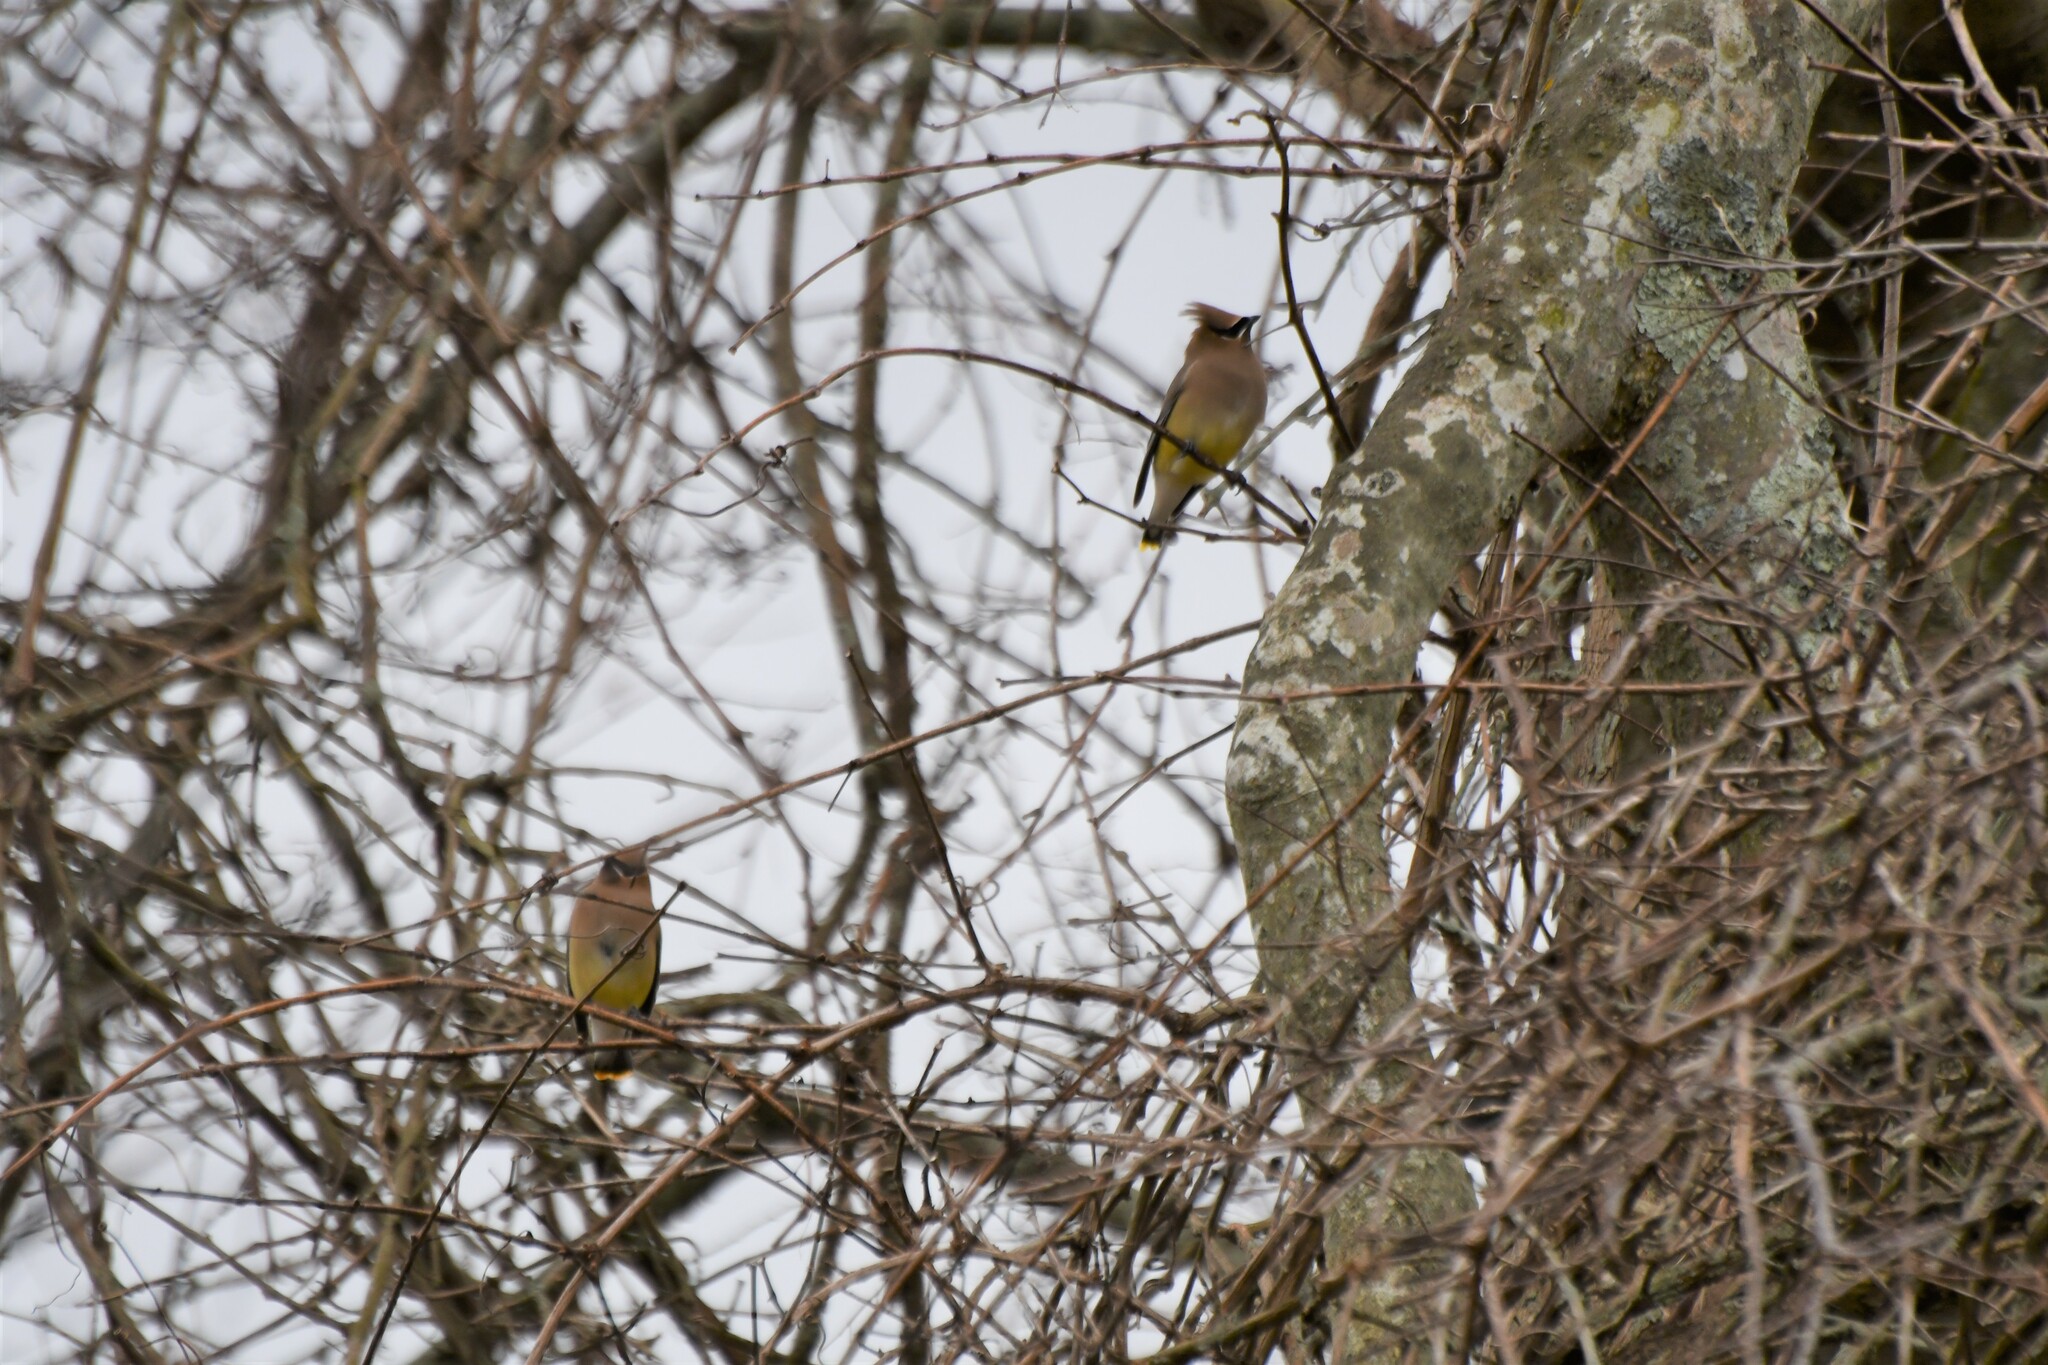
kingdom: Animalia
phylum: Chordata
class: Aves
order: Passeriformes
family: Bombycillidae
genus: Bombycilla
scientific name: Bombycilla cedrorum
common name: Cedar waxwing
